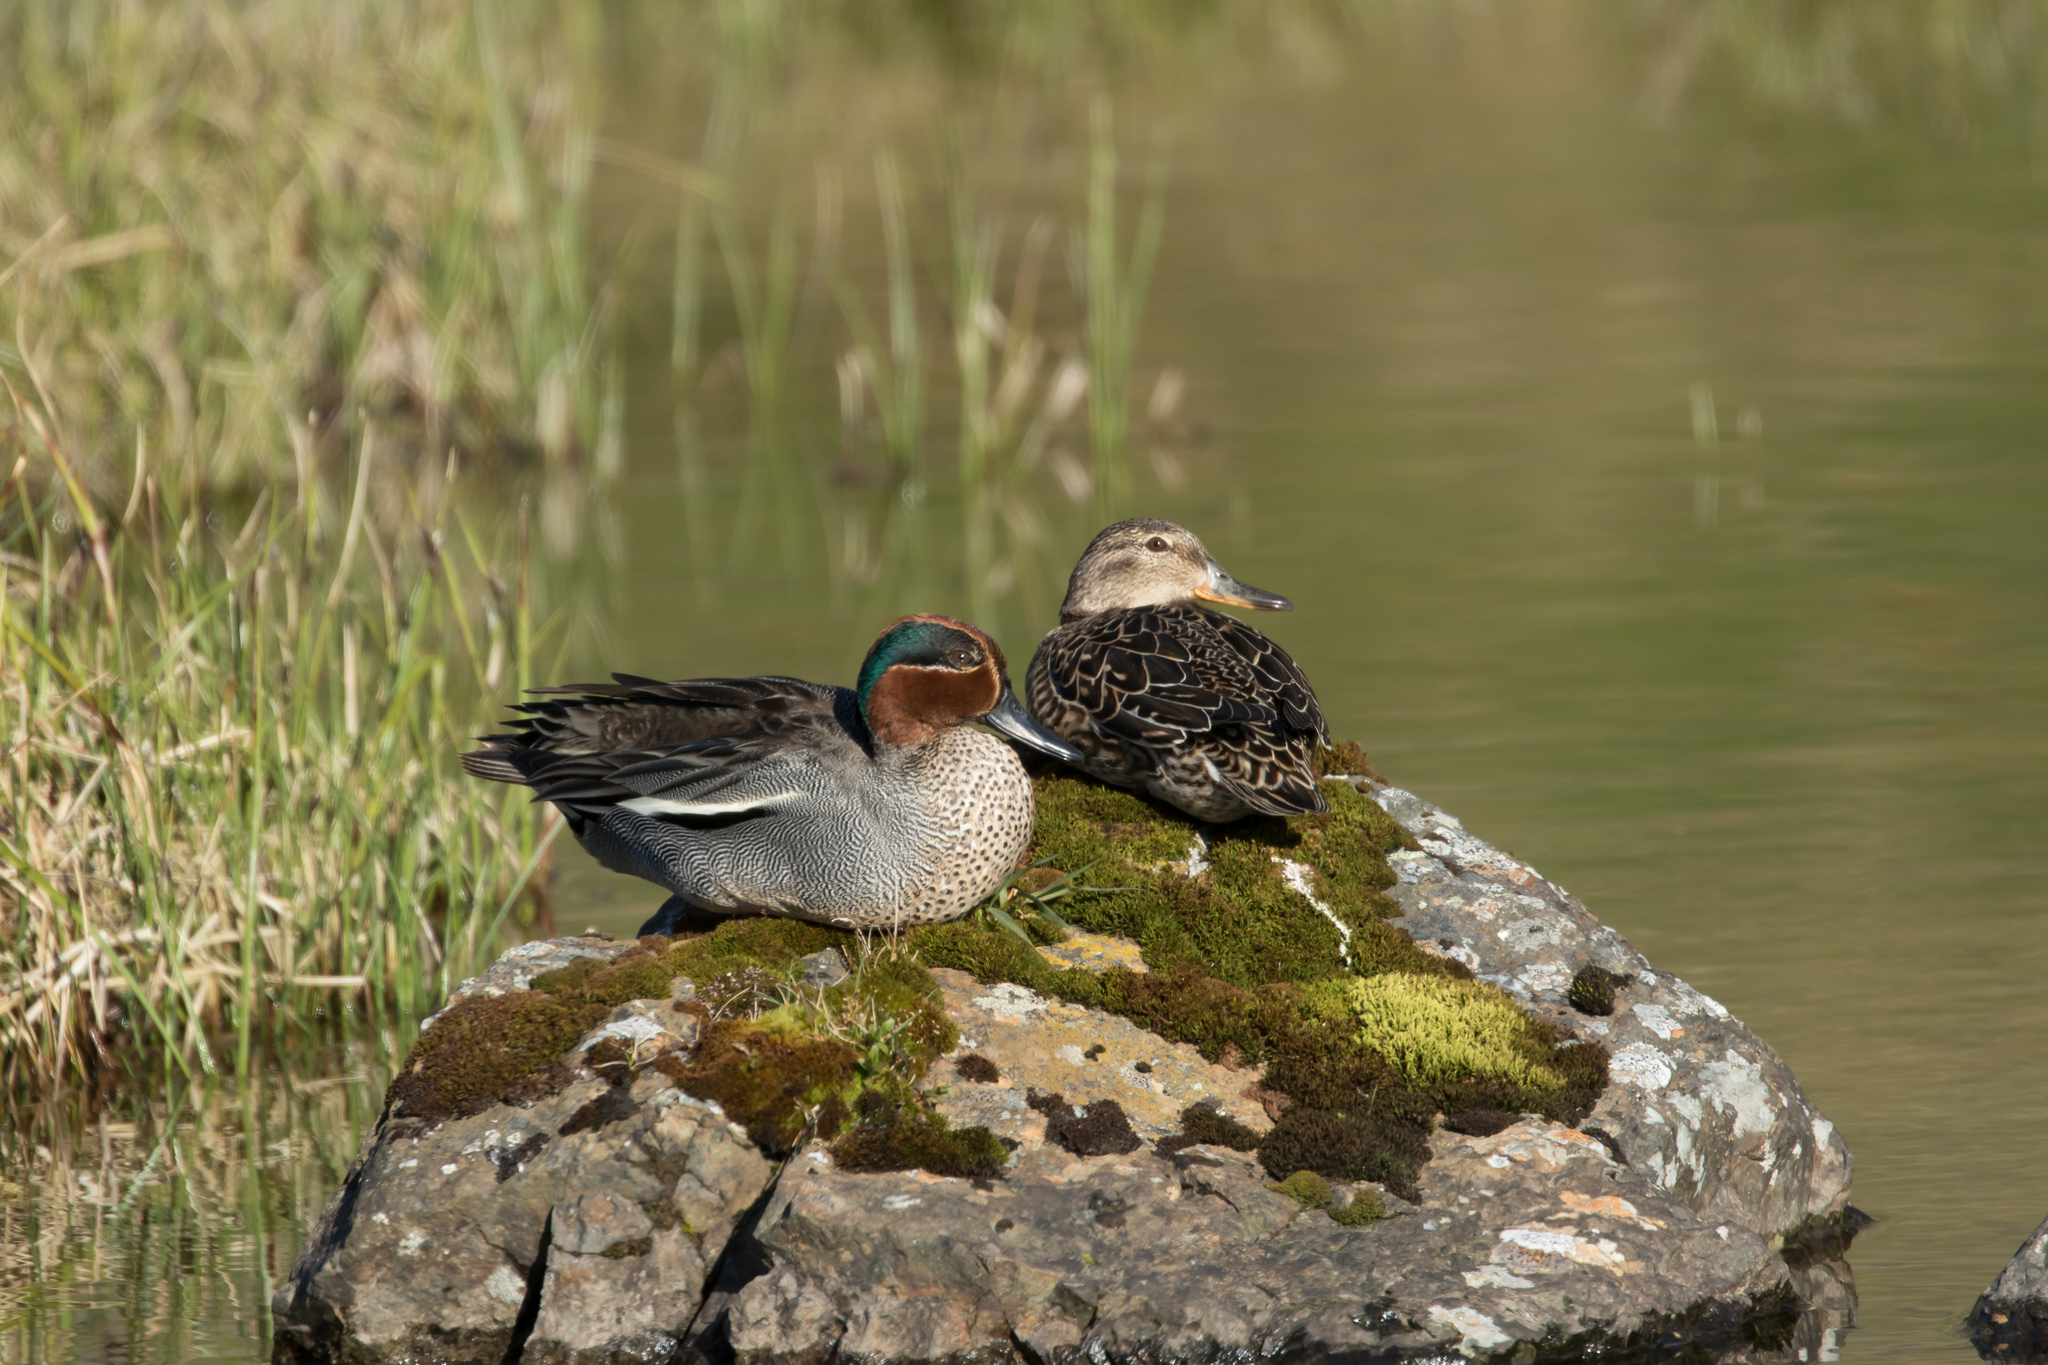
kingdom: Animalia
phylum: Chordata
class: Aves
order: Anseriformes
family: Anatidae
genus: Anas
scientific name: Anas crecca
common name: Eurasian teal
